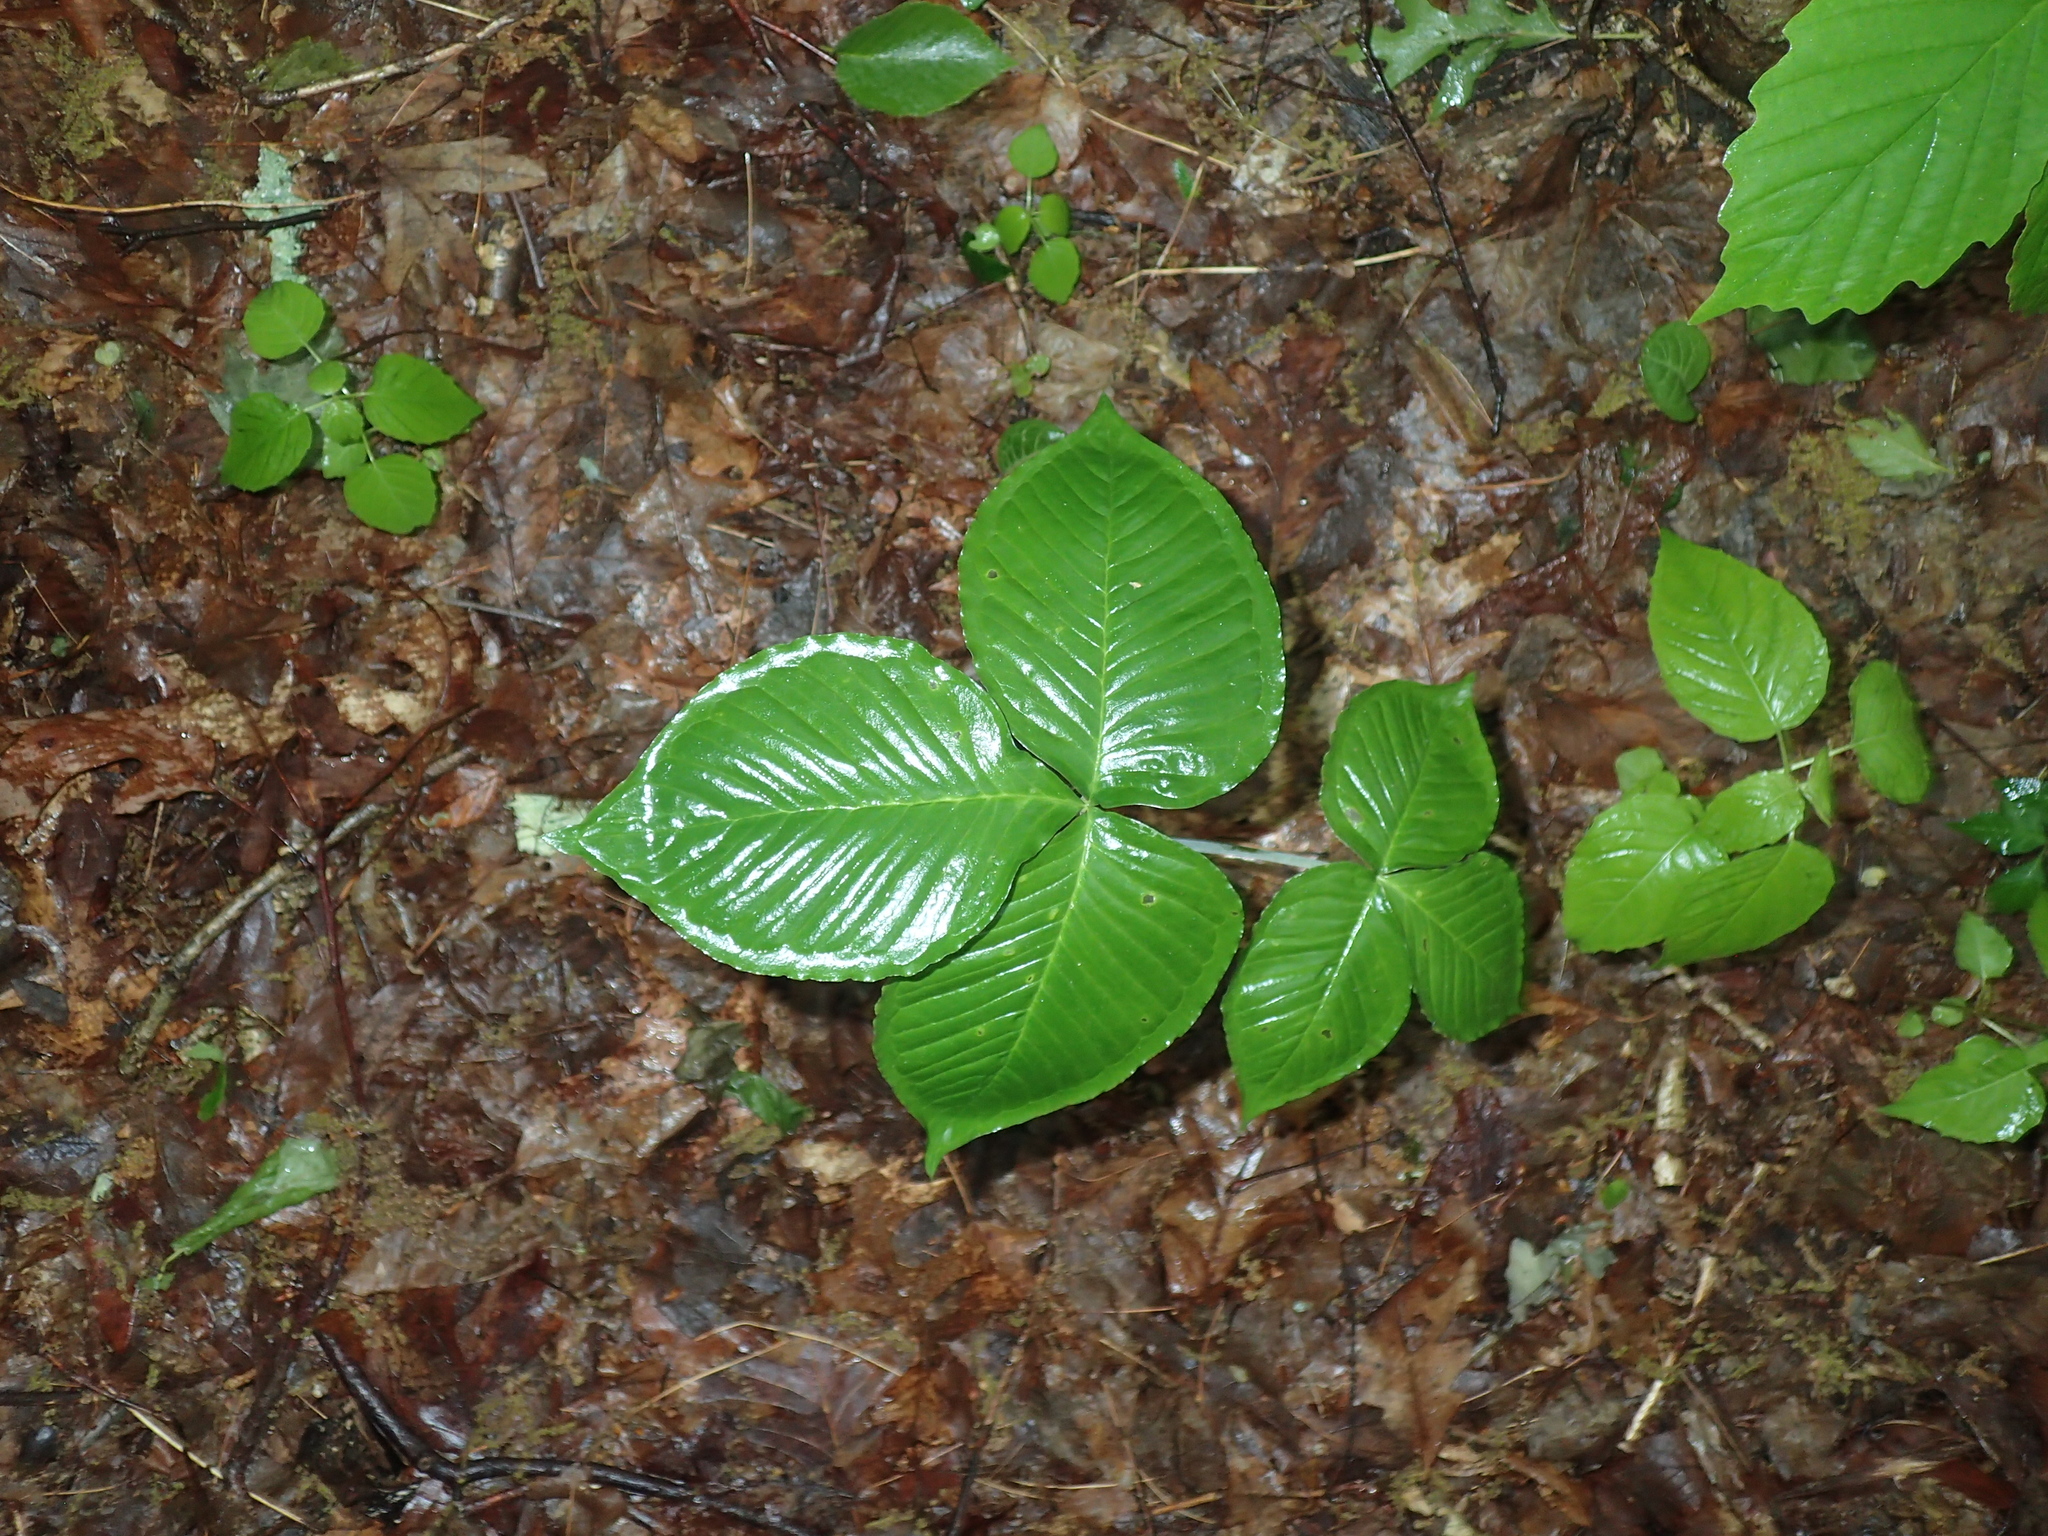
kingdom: Plantae
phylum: Tracheophyta
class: Liliopsida
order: Alismatales
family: Araceae
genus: Arisaema
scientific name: Arisaema triphyllum
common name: Jack-in-the-pulpit
